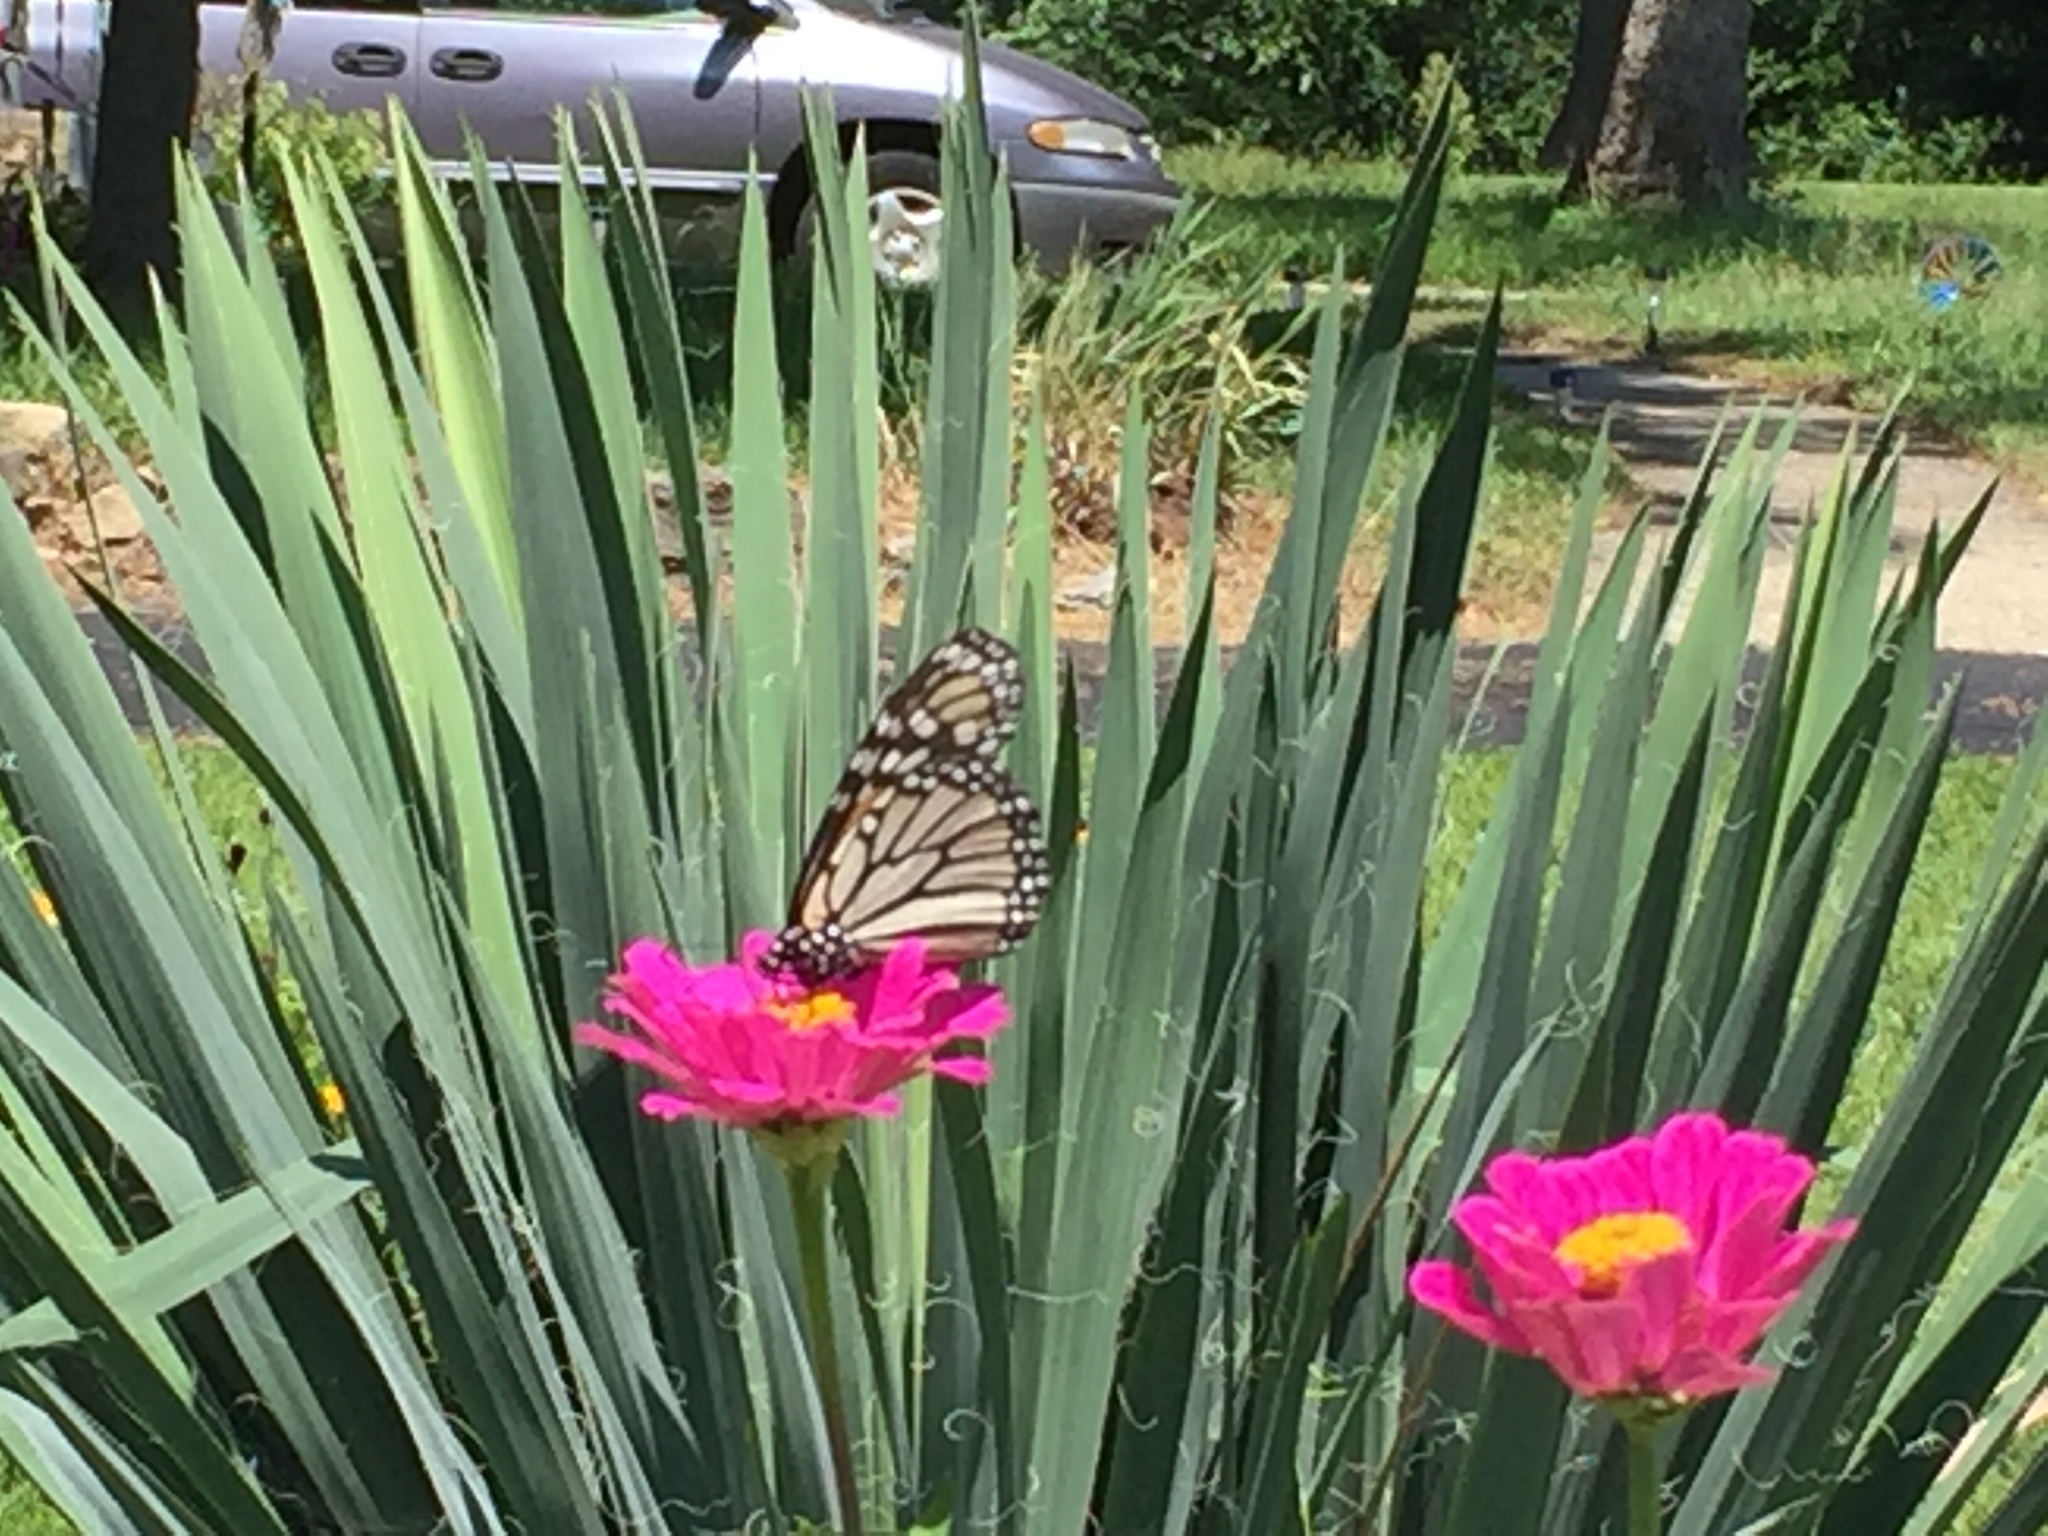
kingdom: Animalia
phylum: Arthropoda
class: Insecta
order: Lepidoptera
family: Nymphalidae
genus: Danaus
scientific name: Danaus plexippus
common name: Monarch
